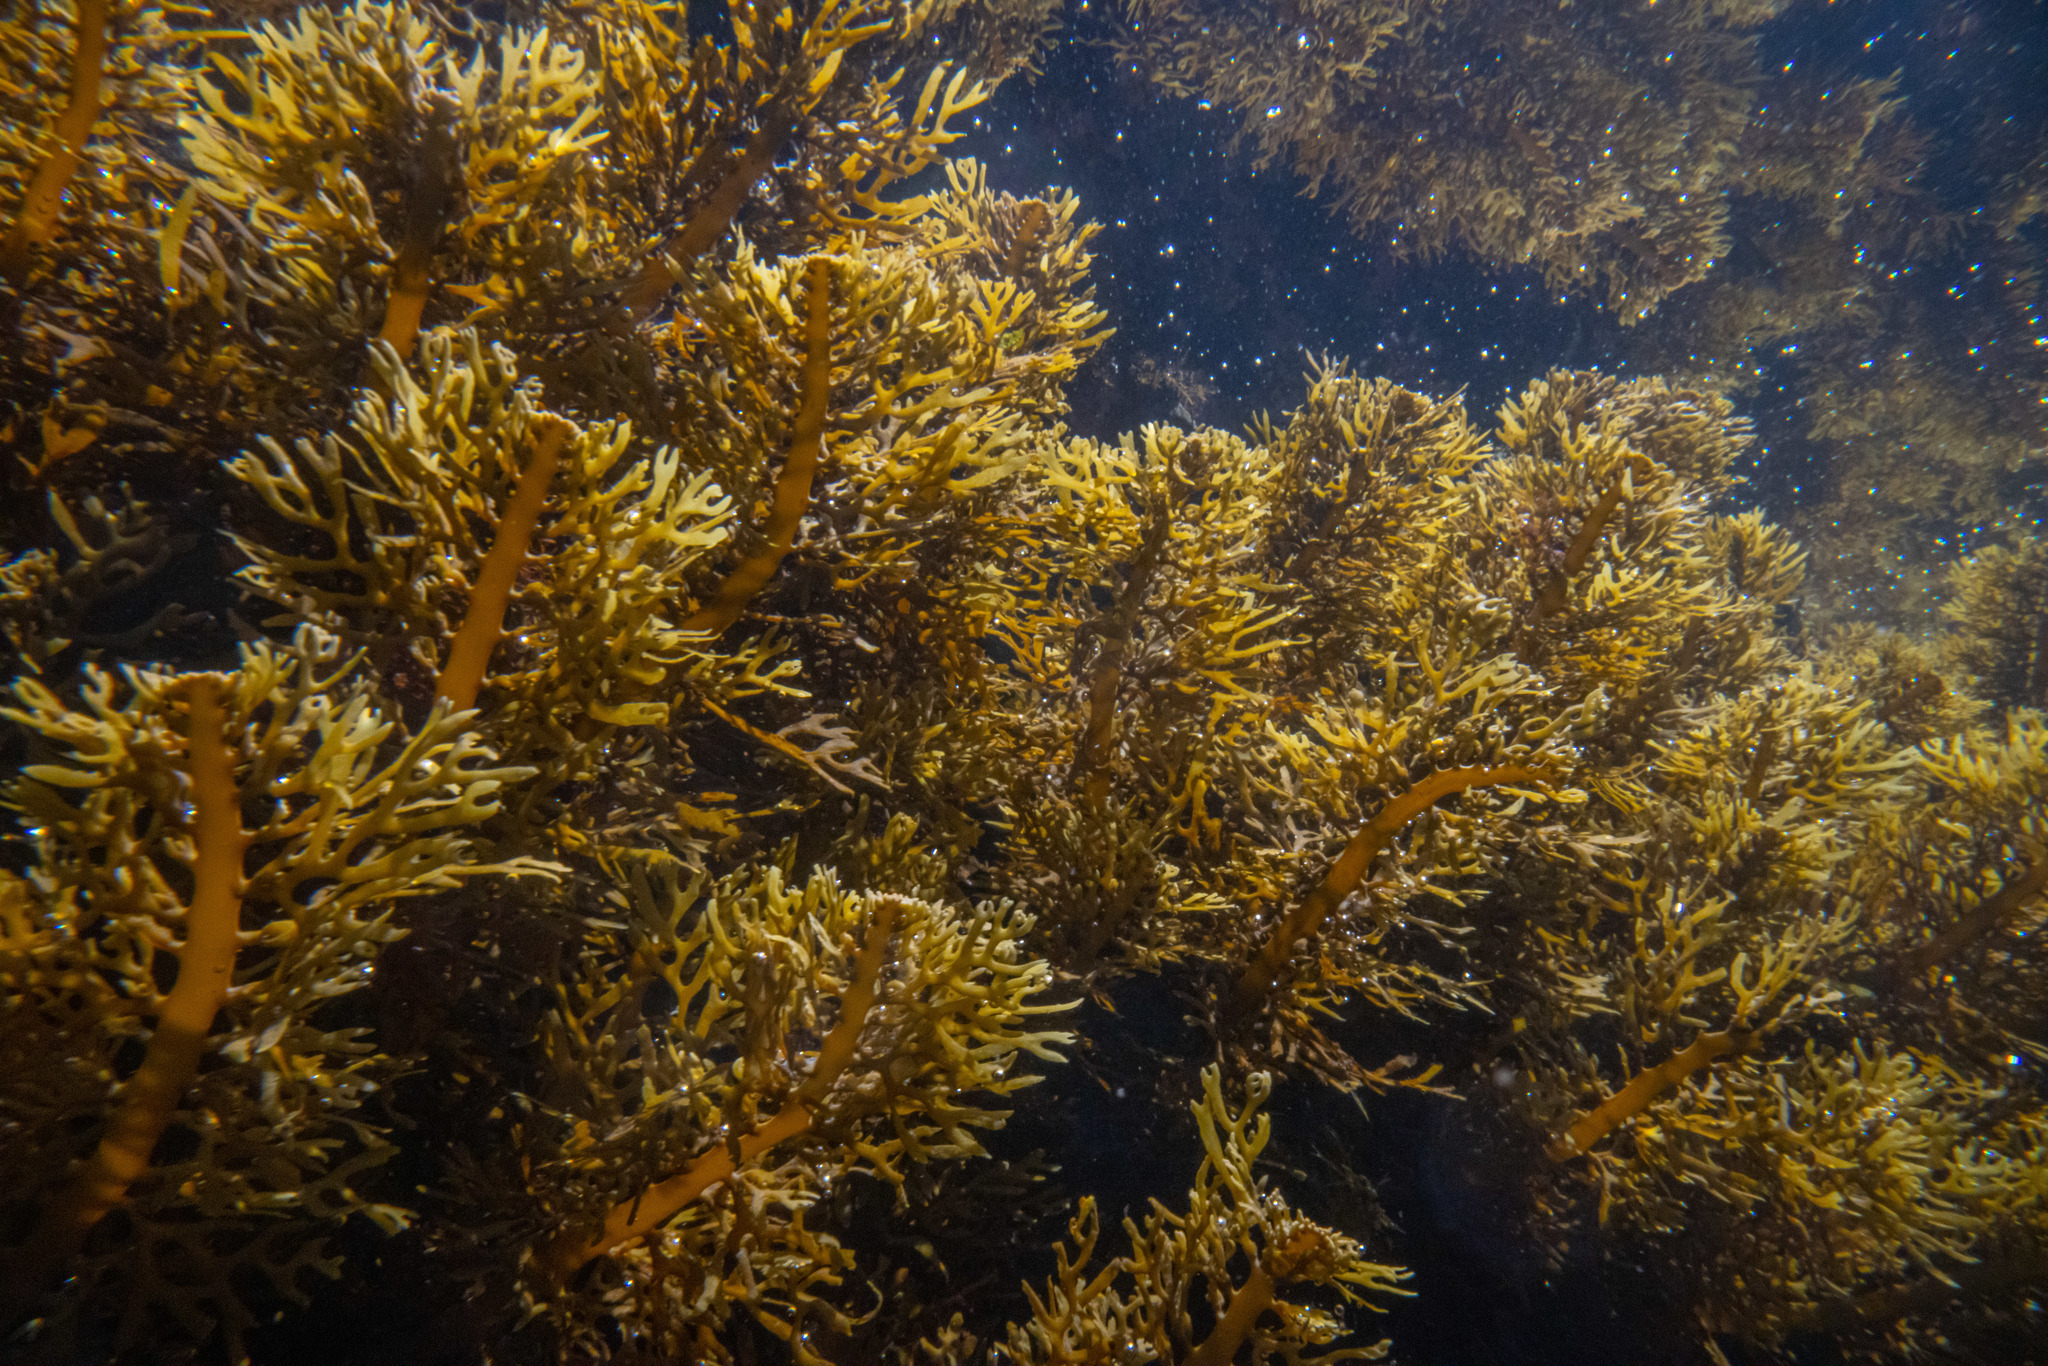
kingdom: Chromista
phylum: Ochrophyta
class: Phaeophyceae
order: Fucales
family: Sargassaceae
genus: Carpophyllum
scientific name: Carpophyllum plumosum
